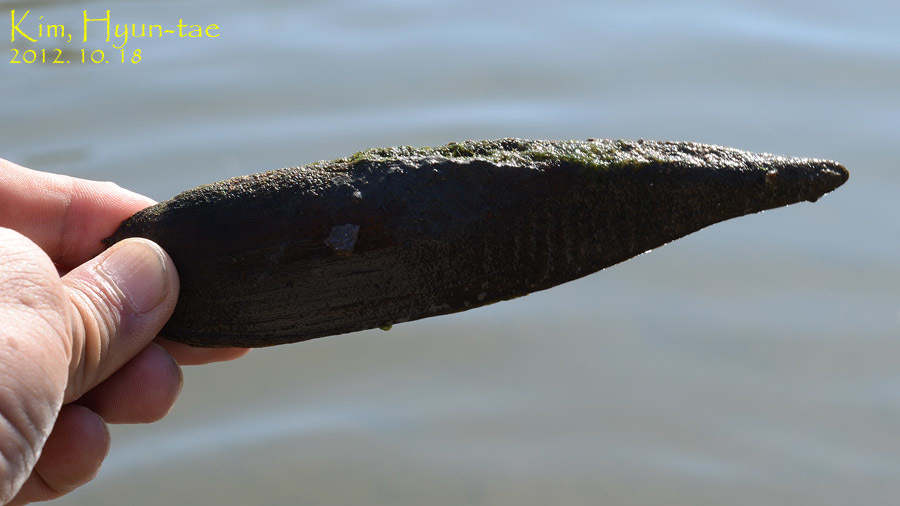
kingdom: Animalia
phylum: Mollusca
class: Bivalvia
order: Unionida
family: Unionidae
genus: Lanceolaria
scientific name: Lanceolaria acrorrhyncha
